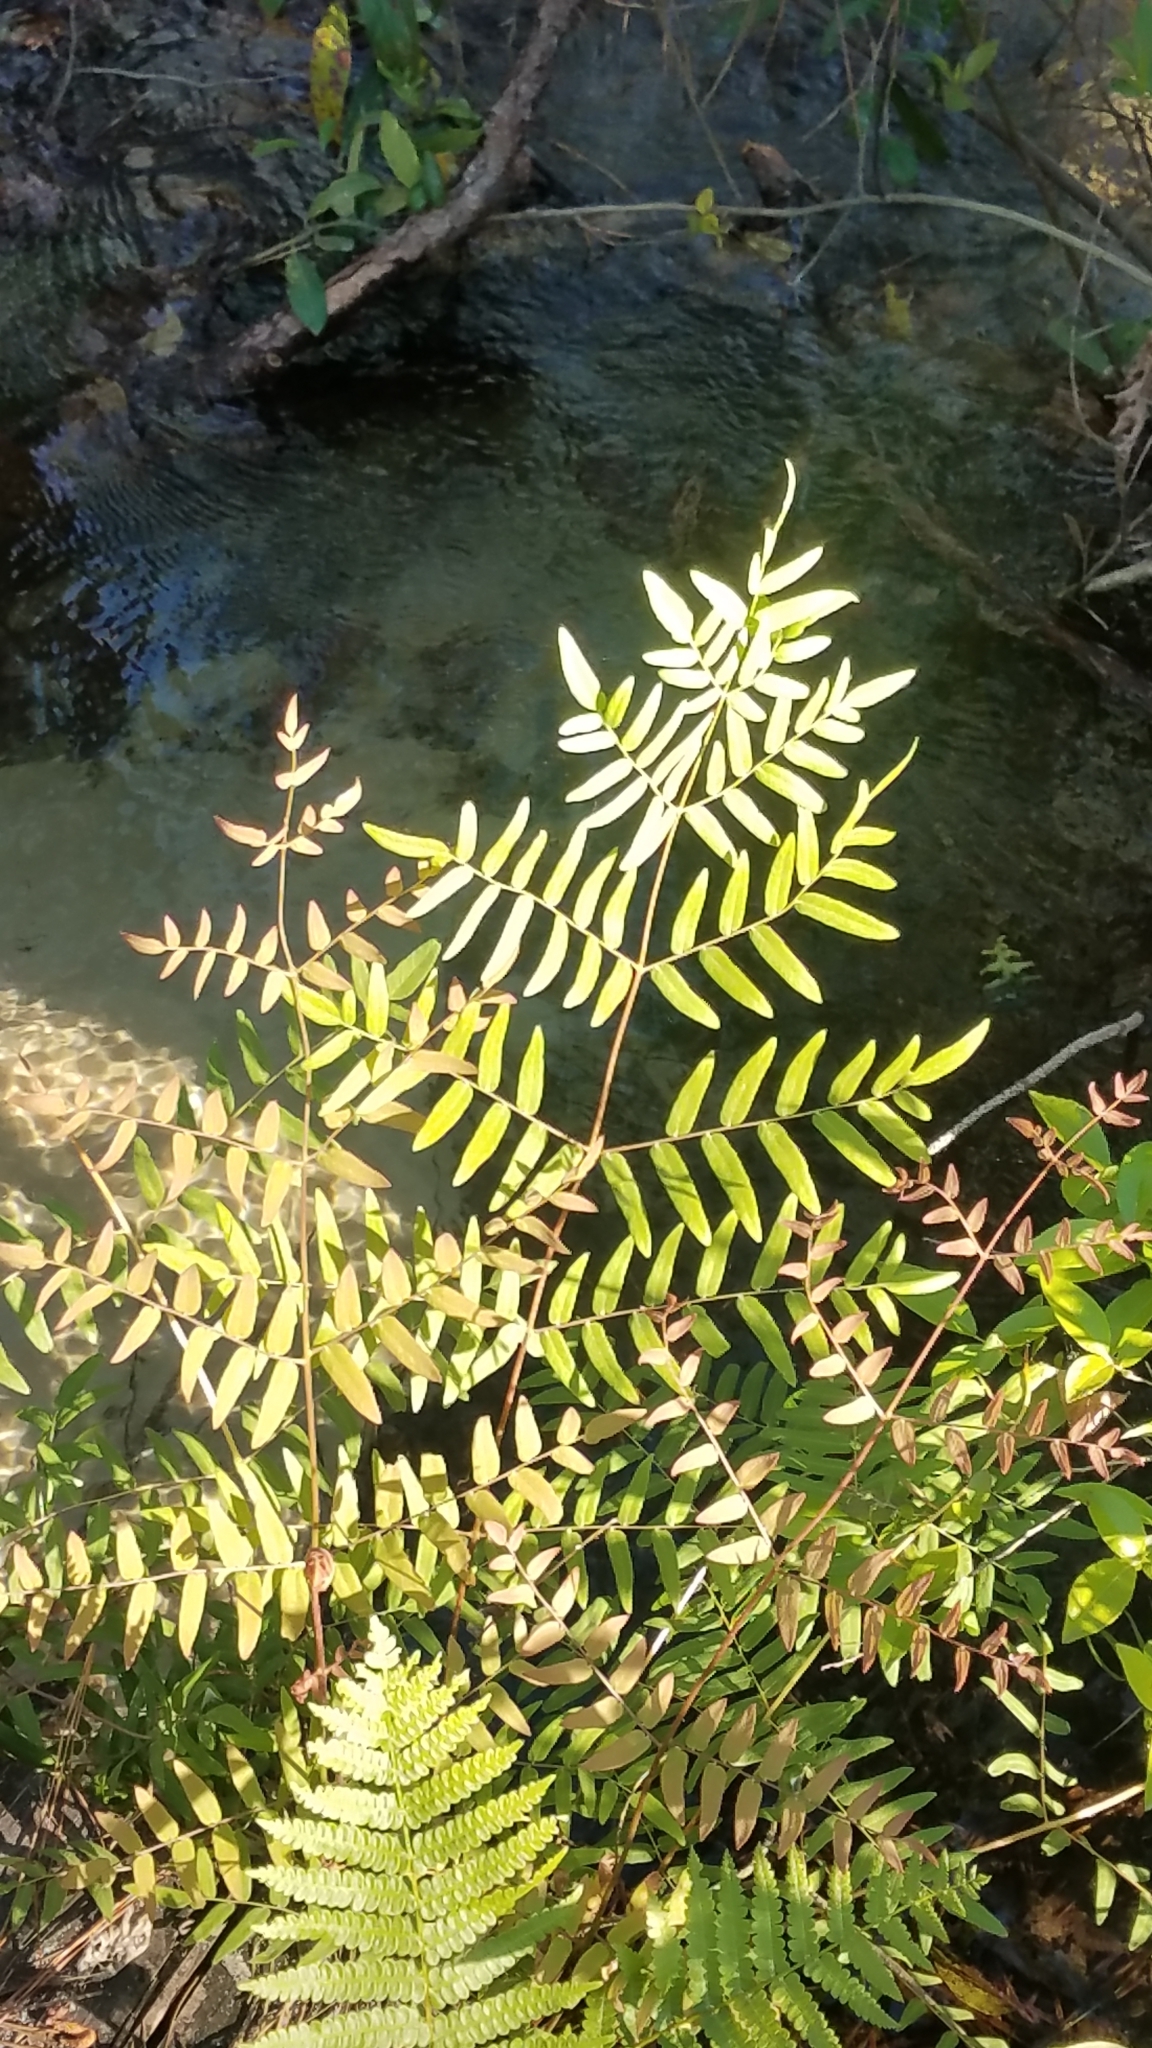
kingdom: Plantae
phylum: Tracheophyta
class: Polypodiopsida
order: Osmundales
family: Osmundaceae
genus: Osmunda
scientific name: Osmunda spectabilis
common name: American royal fern
